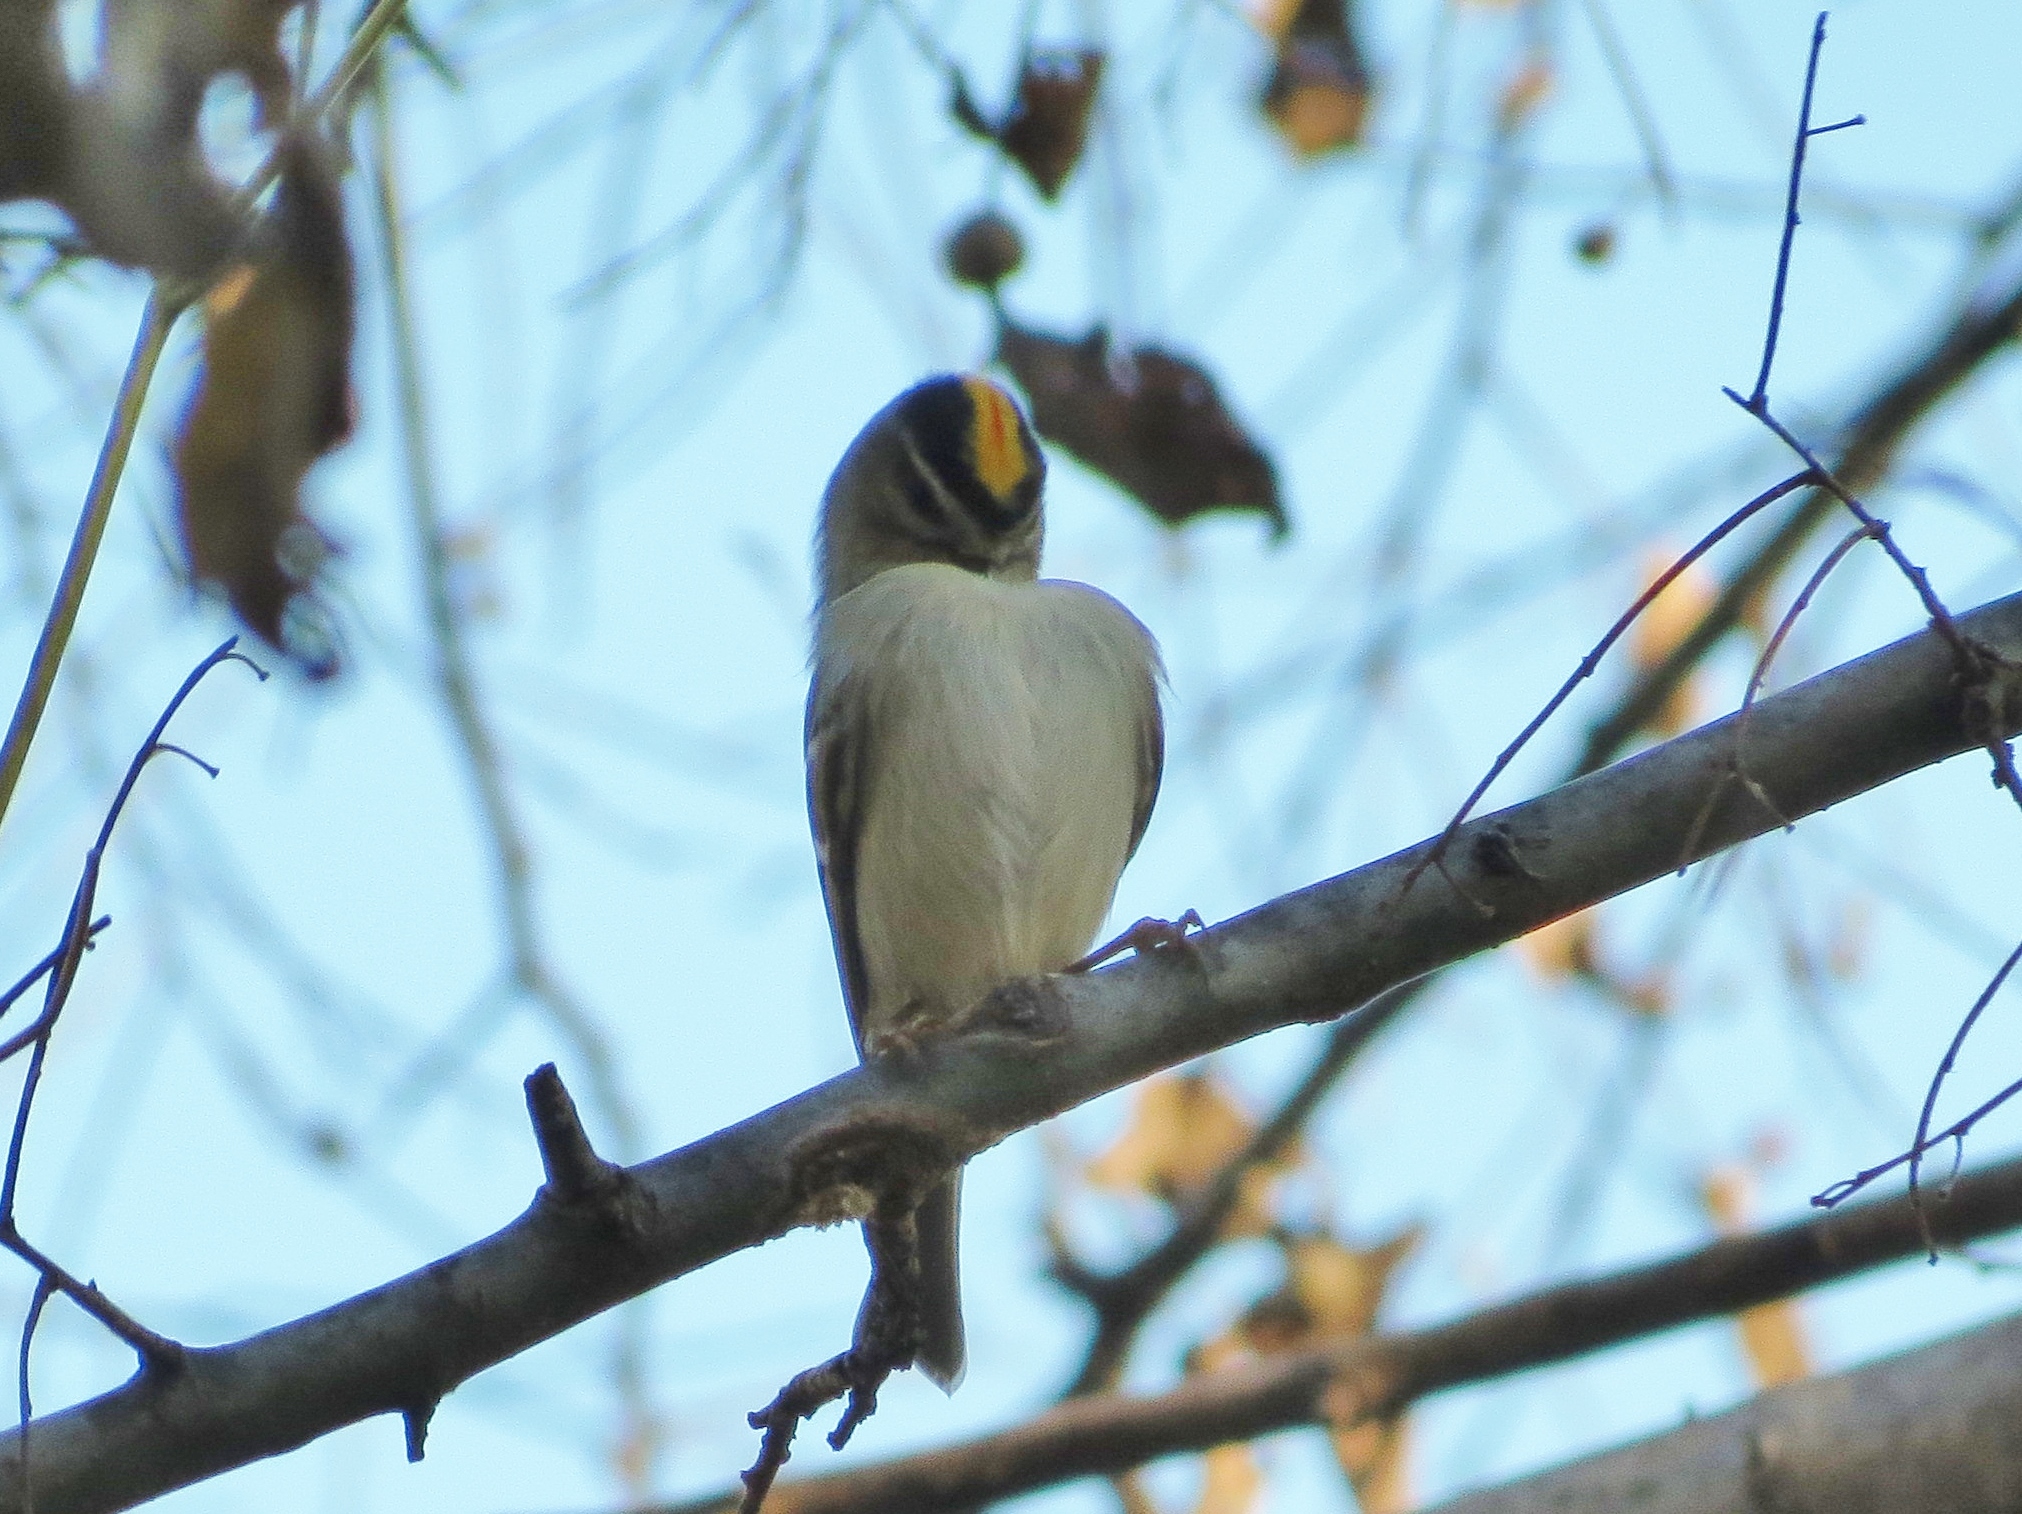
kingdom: Animalia
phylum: Chordata
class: Aves
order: Passeriformes
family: Regulidae
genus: Regulus
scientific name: Regulus satrapa
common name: Golden-crowned kinglet
